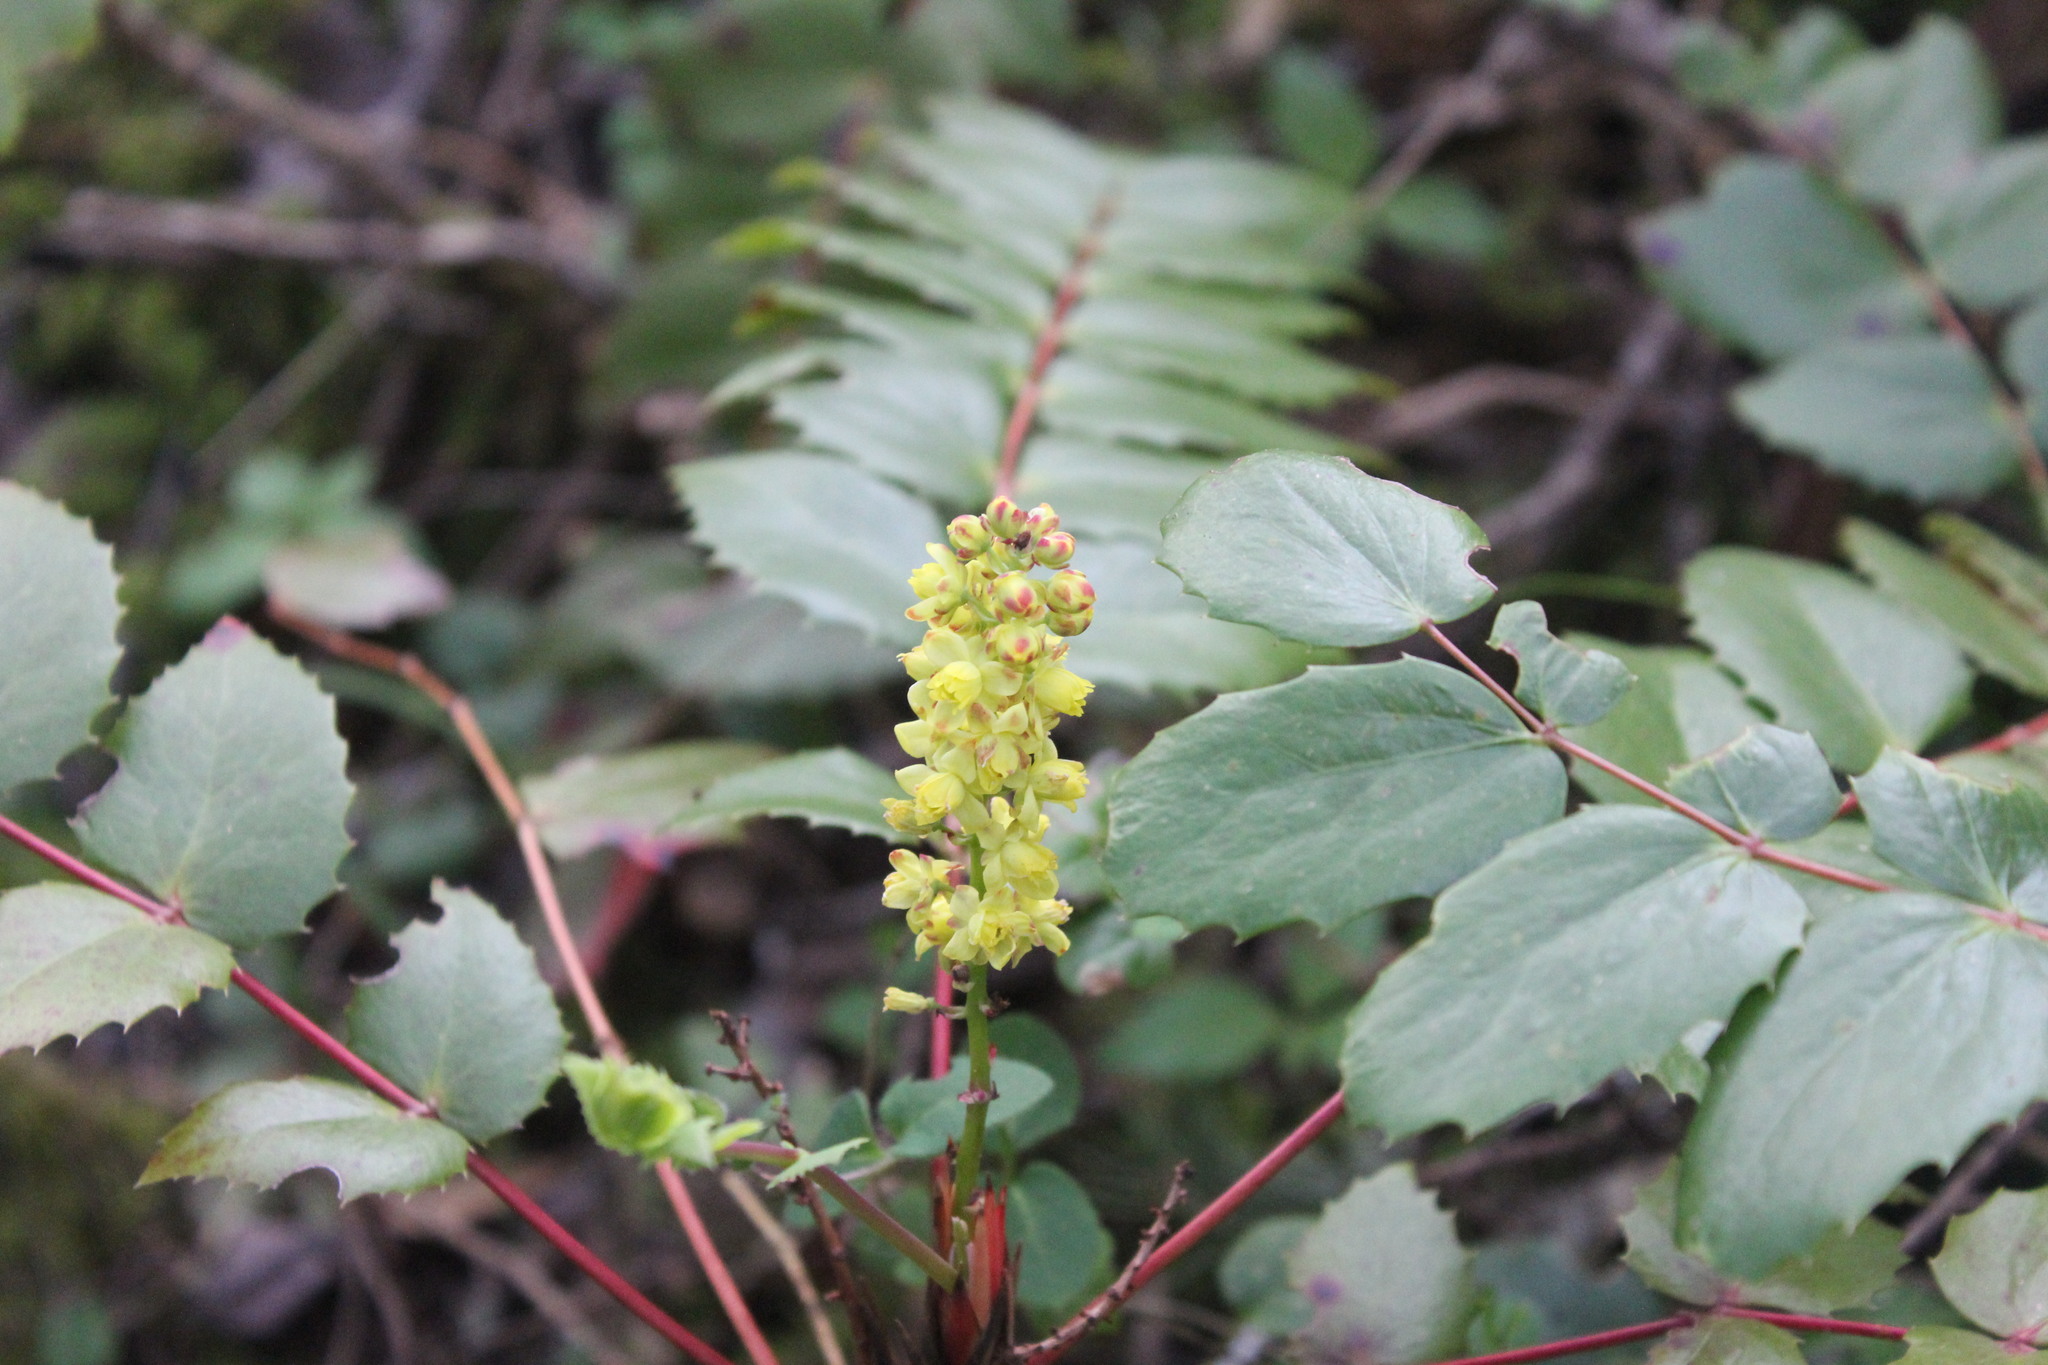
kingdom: Plantae
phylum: Tracheophyta
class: Magnoliopsida
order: Ranunculales
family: Berberidaceae
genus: Mahonia
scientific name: Mahonia nervosa
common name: Cascade oregon-grape
